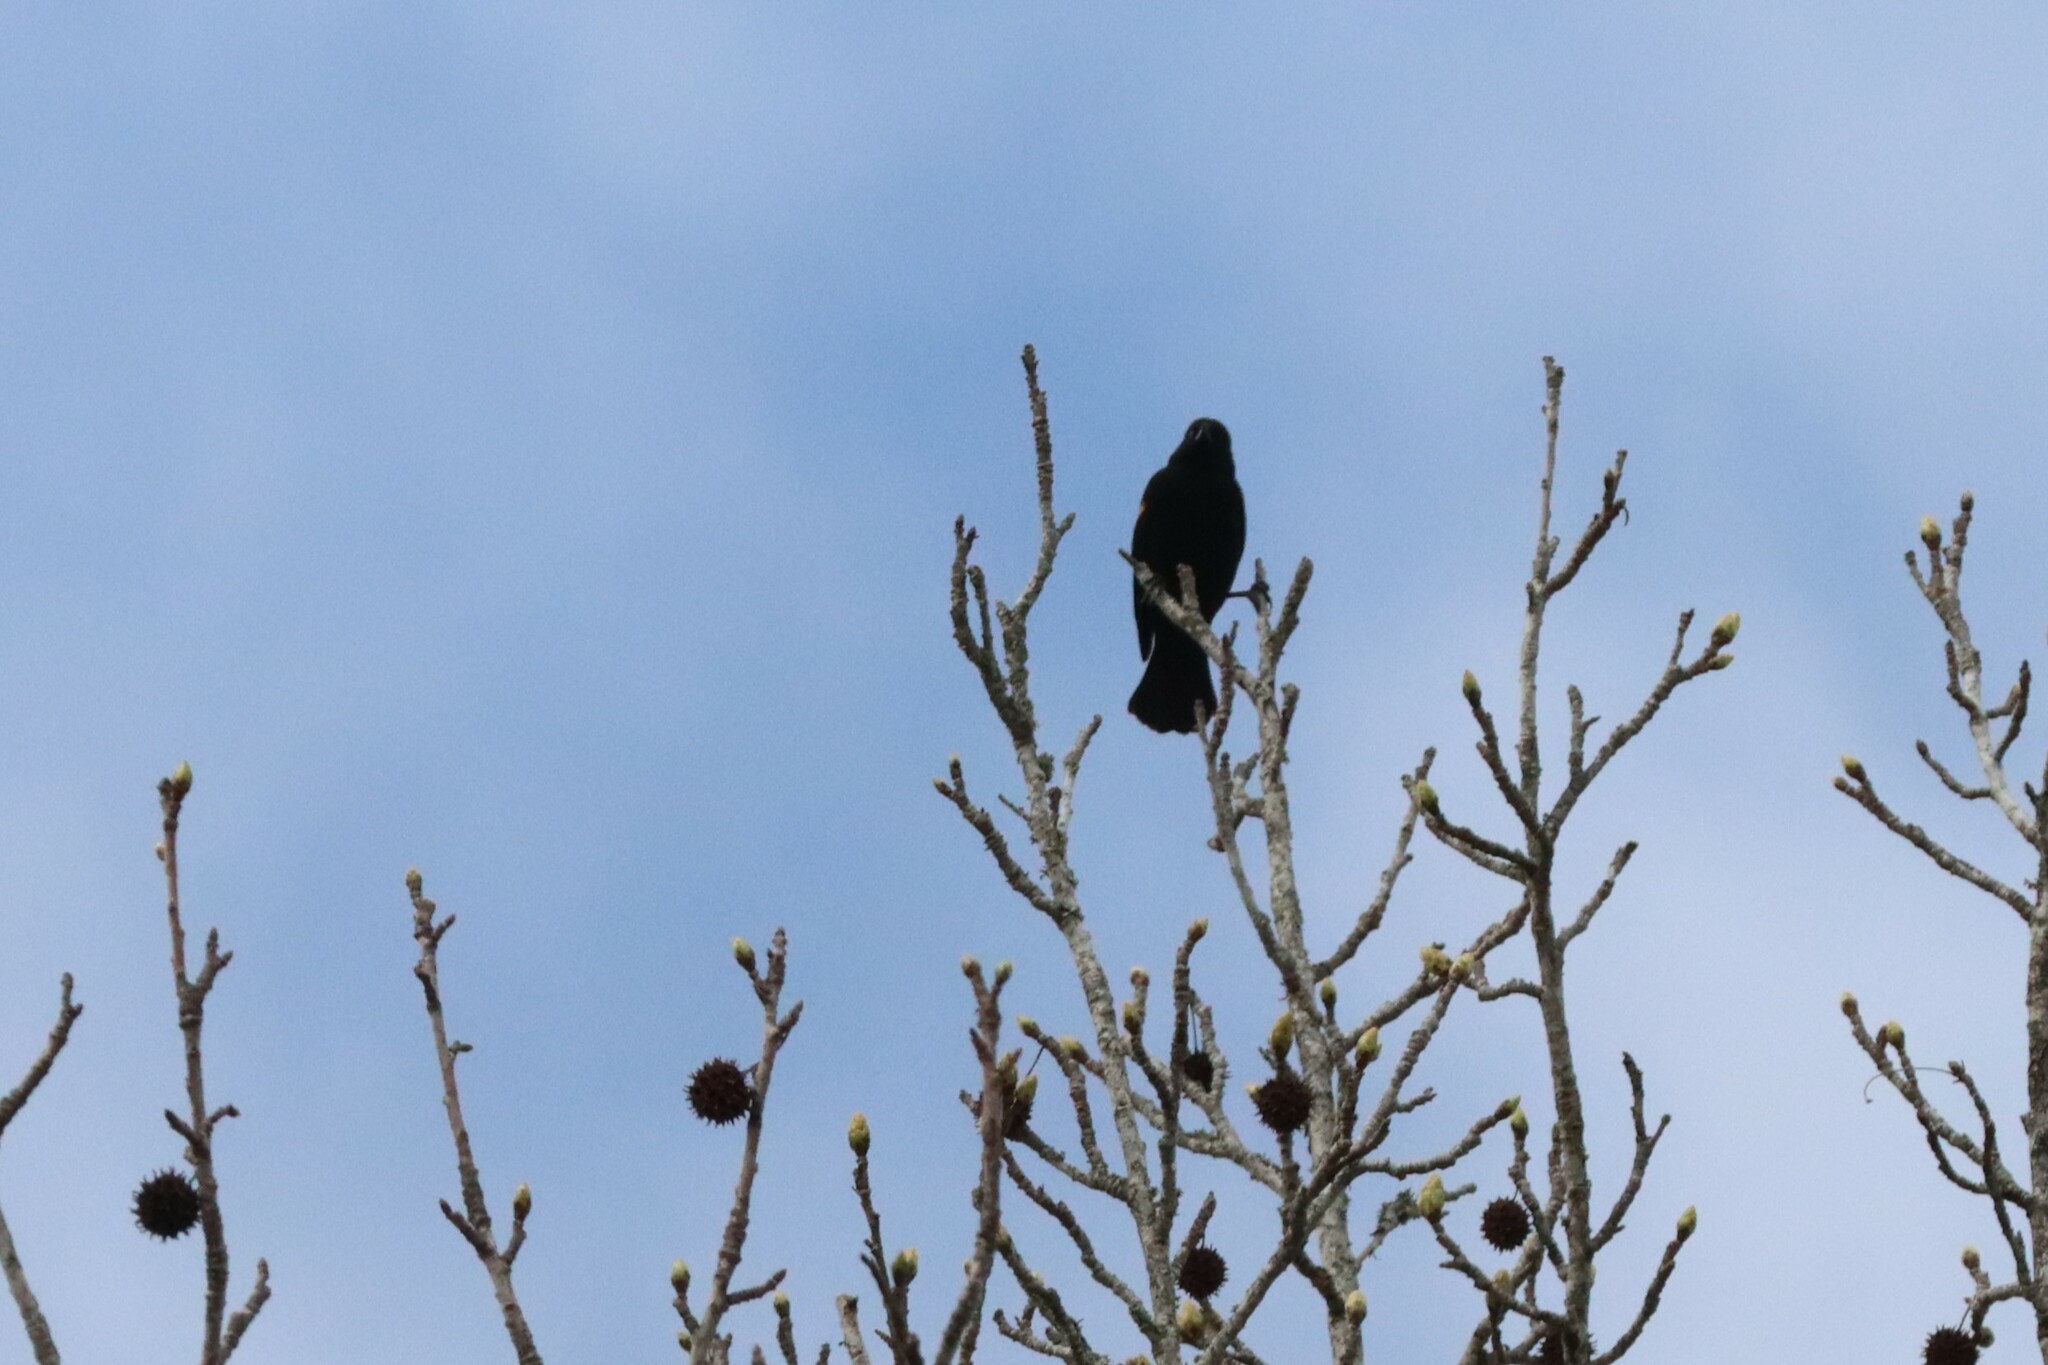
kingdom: Animalia
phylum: Chordata
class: Aves
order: Passeriformes
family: Icteridae
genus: Agelaius
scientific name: Agelaius phoeniceus
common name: Red-winged blackbird
